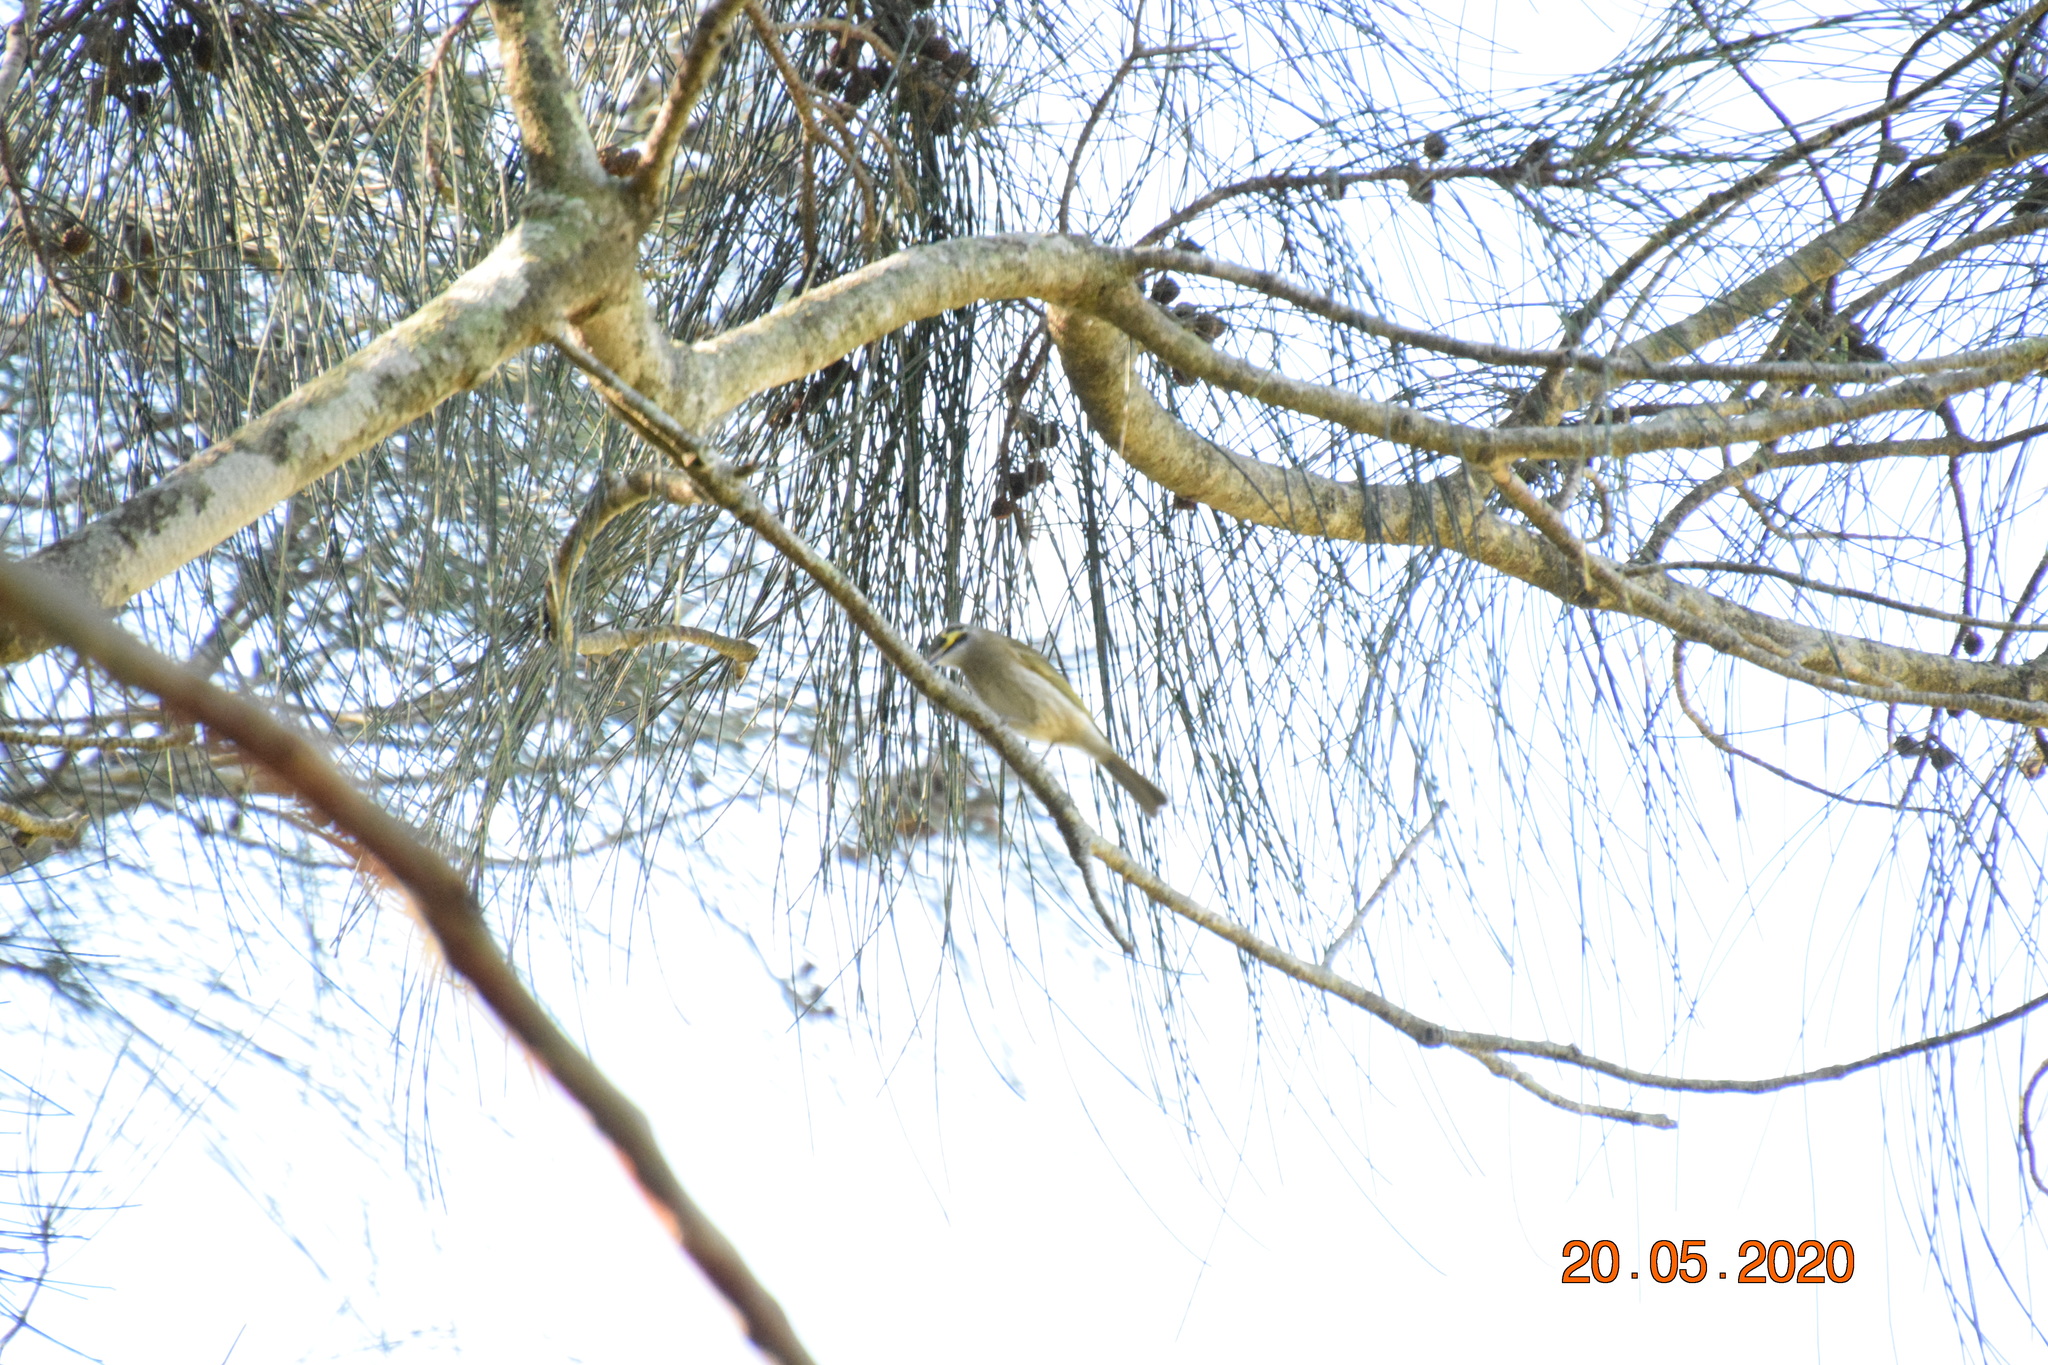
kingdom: Animalia
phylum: Chordata
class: Aves
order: Passeriformes
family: Meliphagidae
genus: Caligavis
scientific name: Caligavis chrysops
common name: Yellow-faced honeyeater
